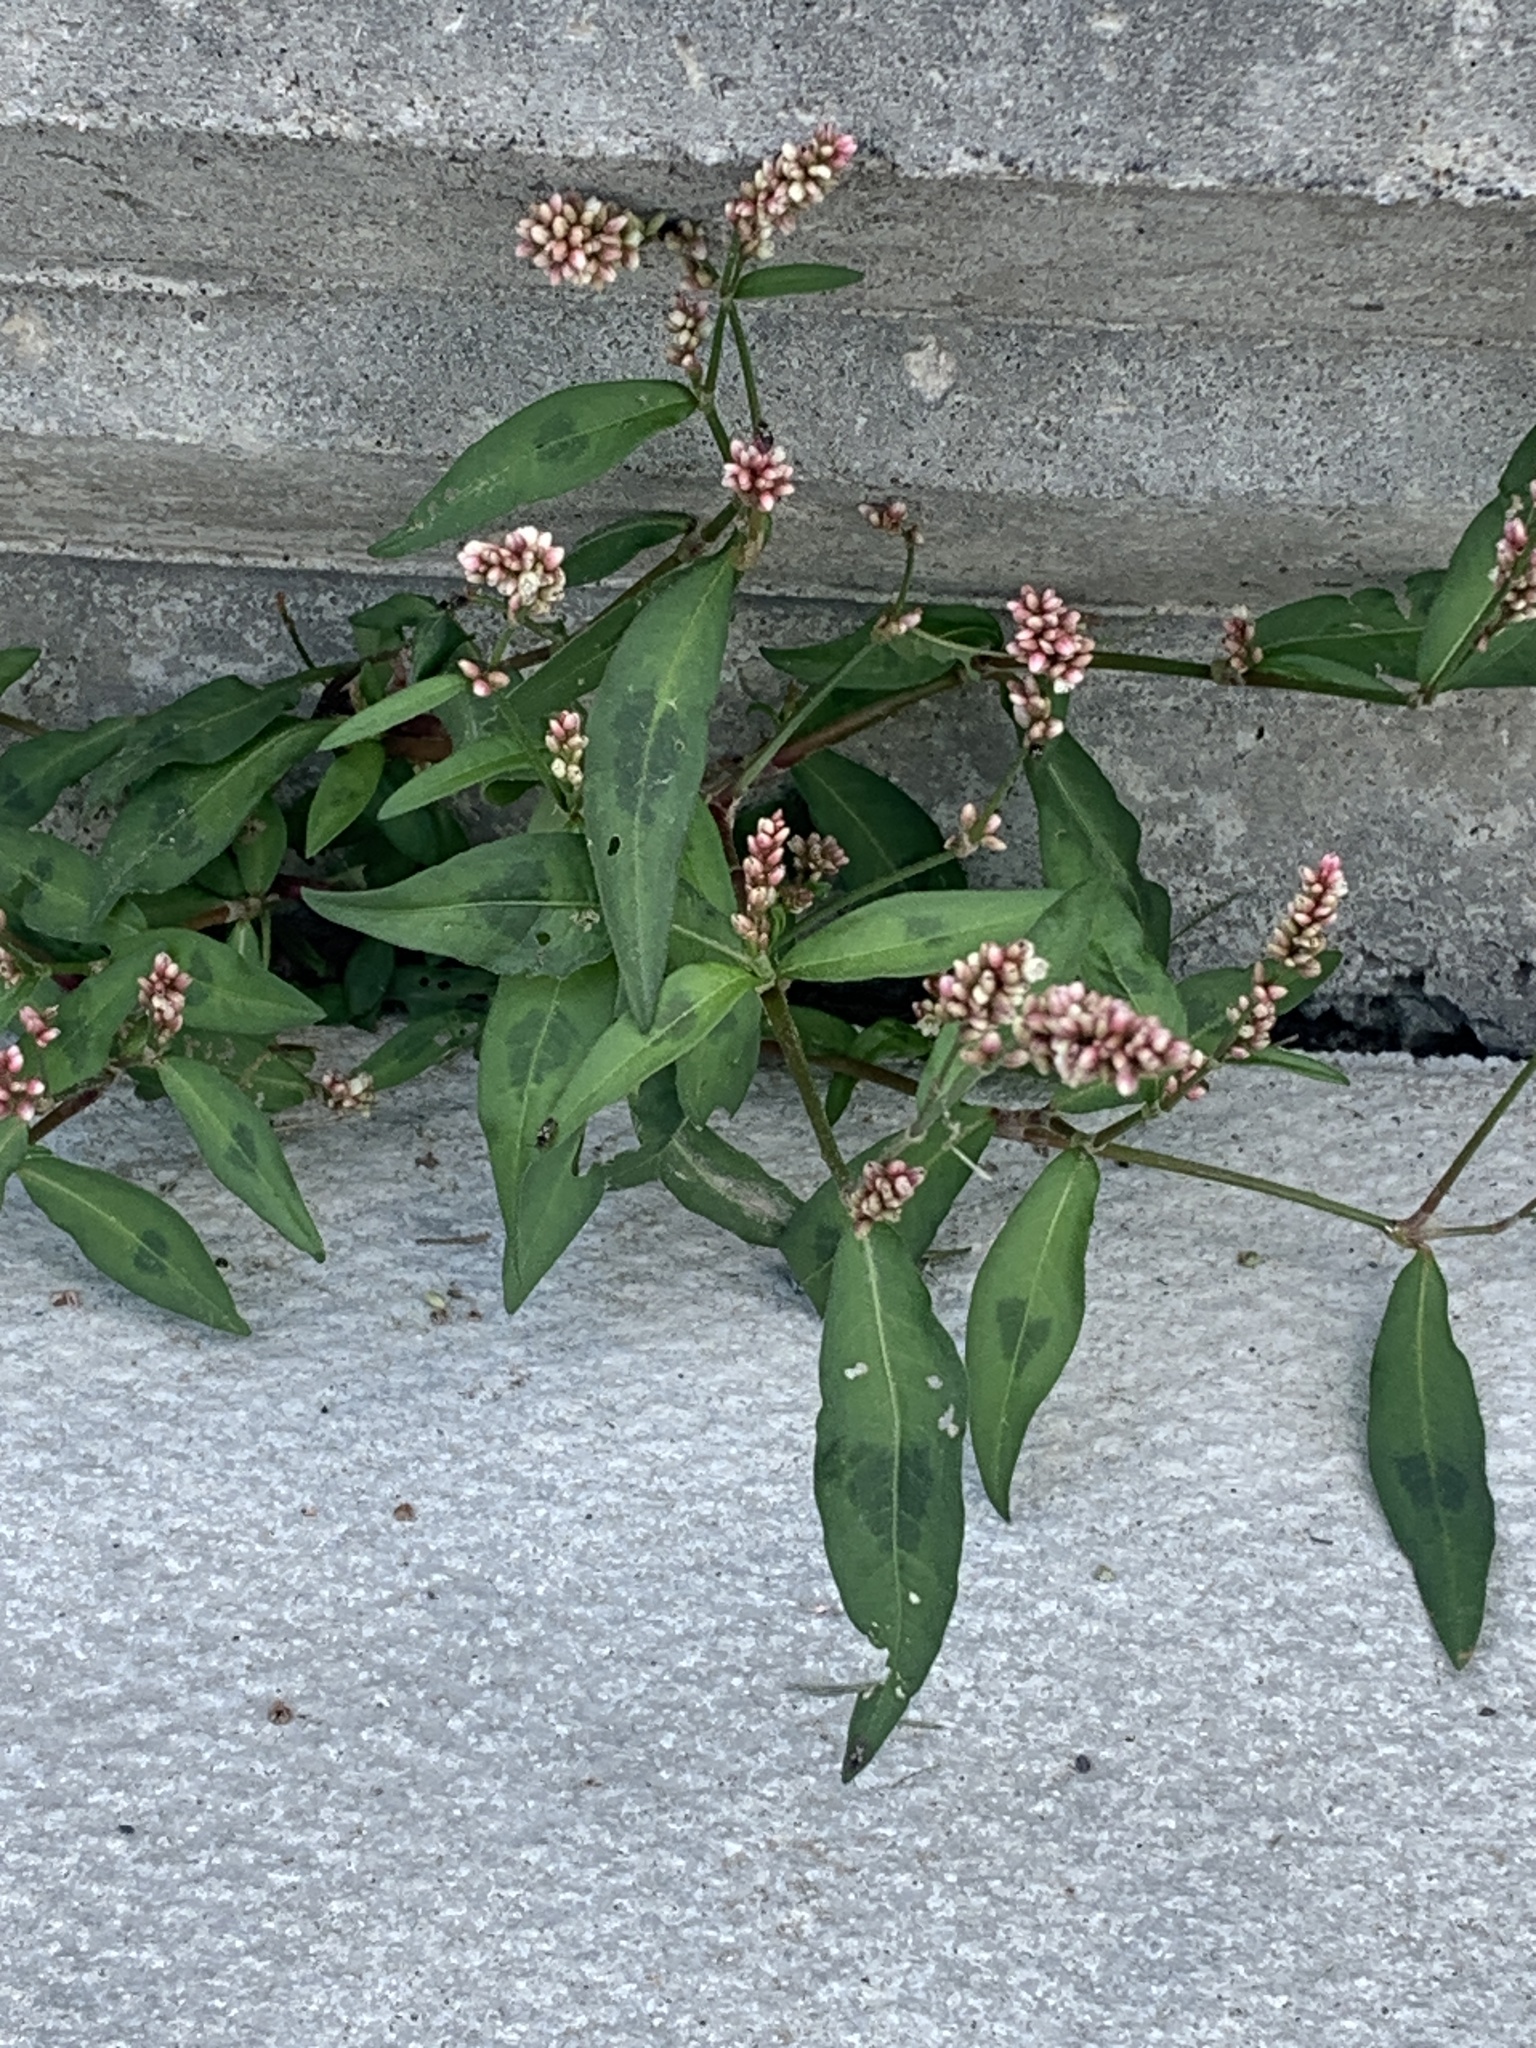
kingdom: Plantae
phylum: Tracheophyta
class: Magnoliopsida
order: Caryophyllales
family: Polygonaceae
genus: Persicaria
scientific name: Persicaria maculosa
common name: Redshank
